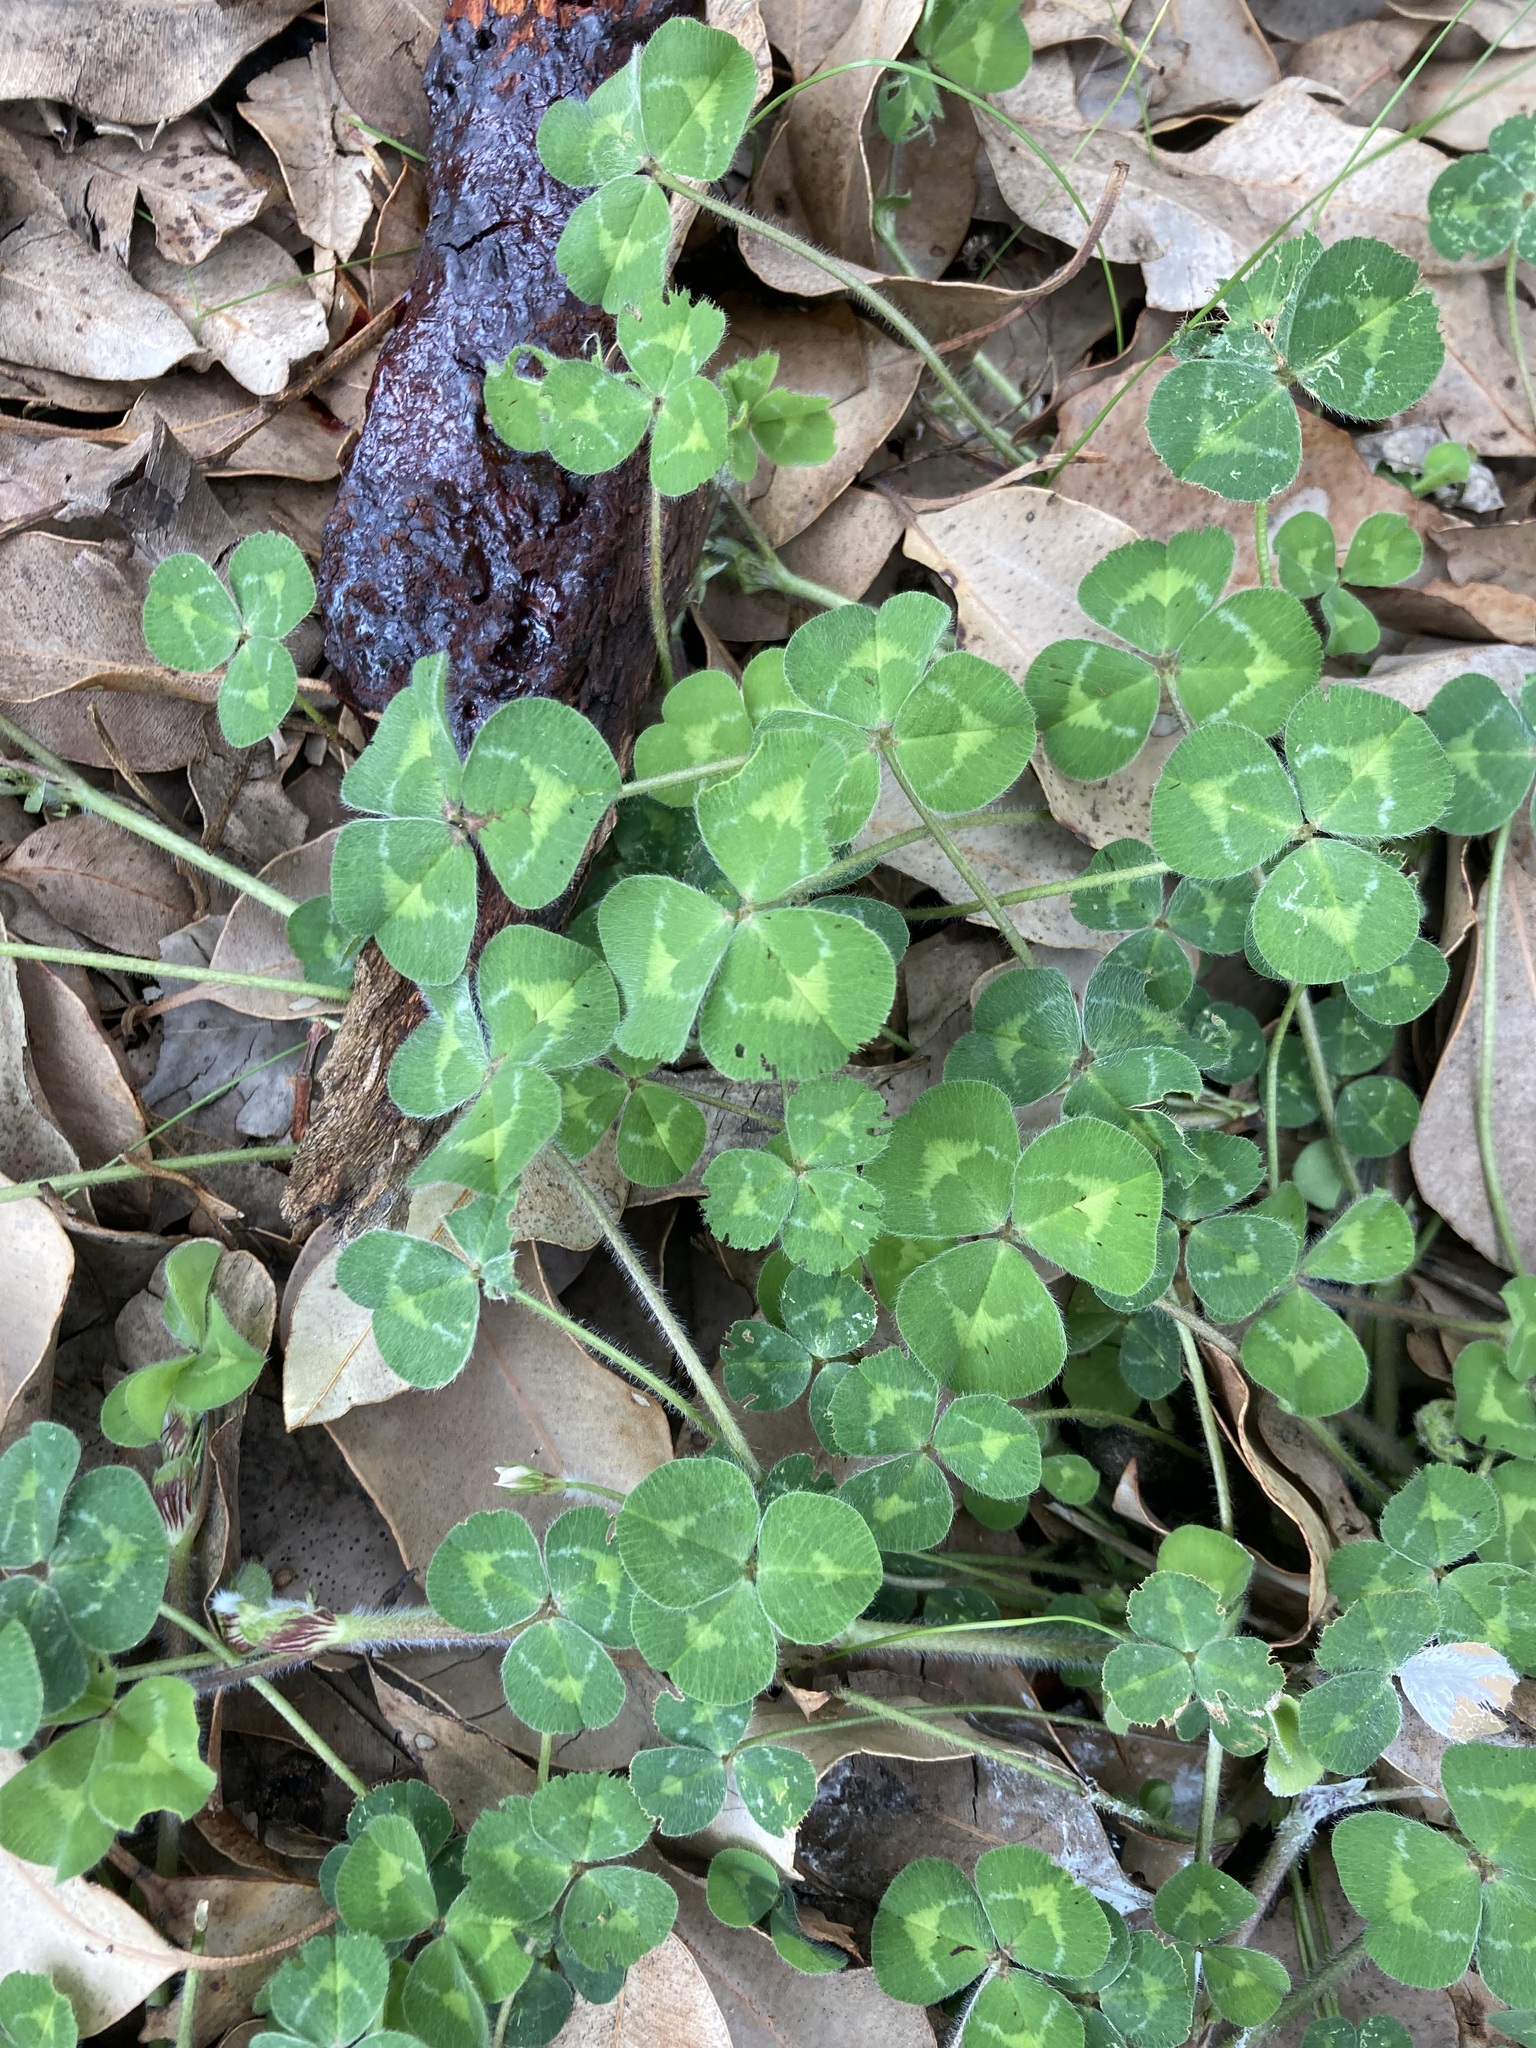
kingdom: Plantae
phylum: Tracheophyta
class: Magnoliopsida
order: Fabales
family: Fabaceae
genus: Trifolium
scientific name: Trifolium subterraneum
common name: Subterranean clover
